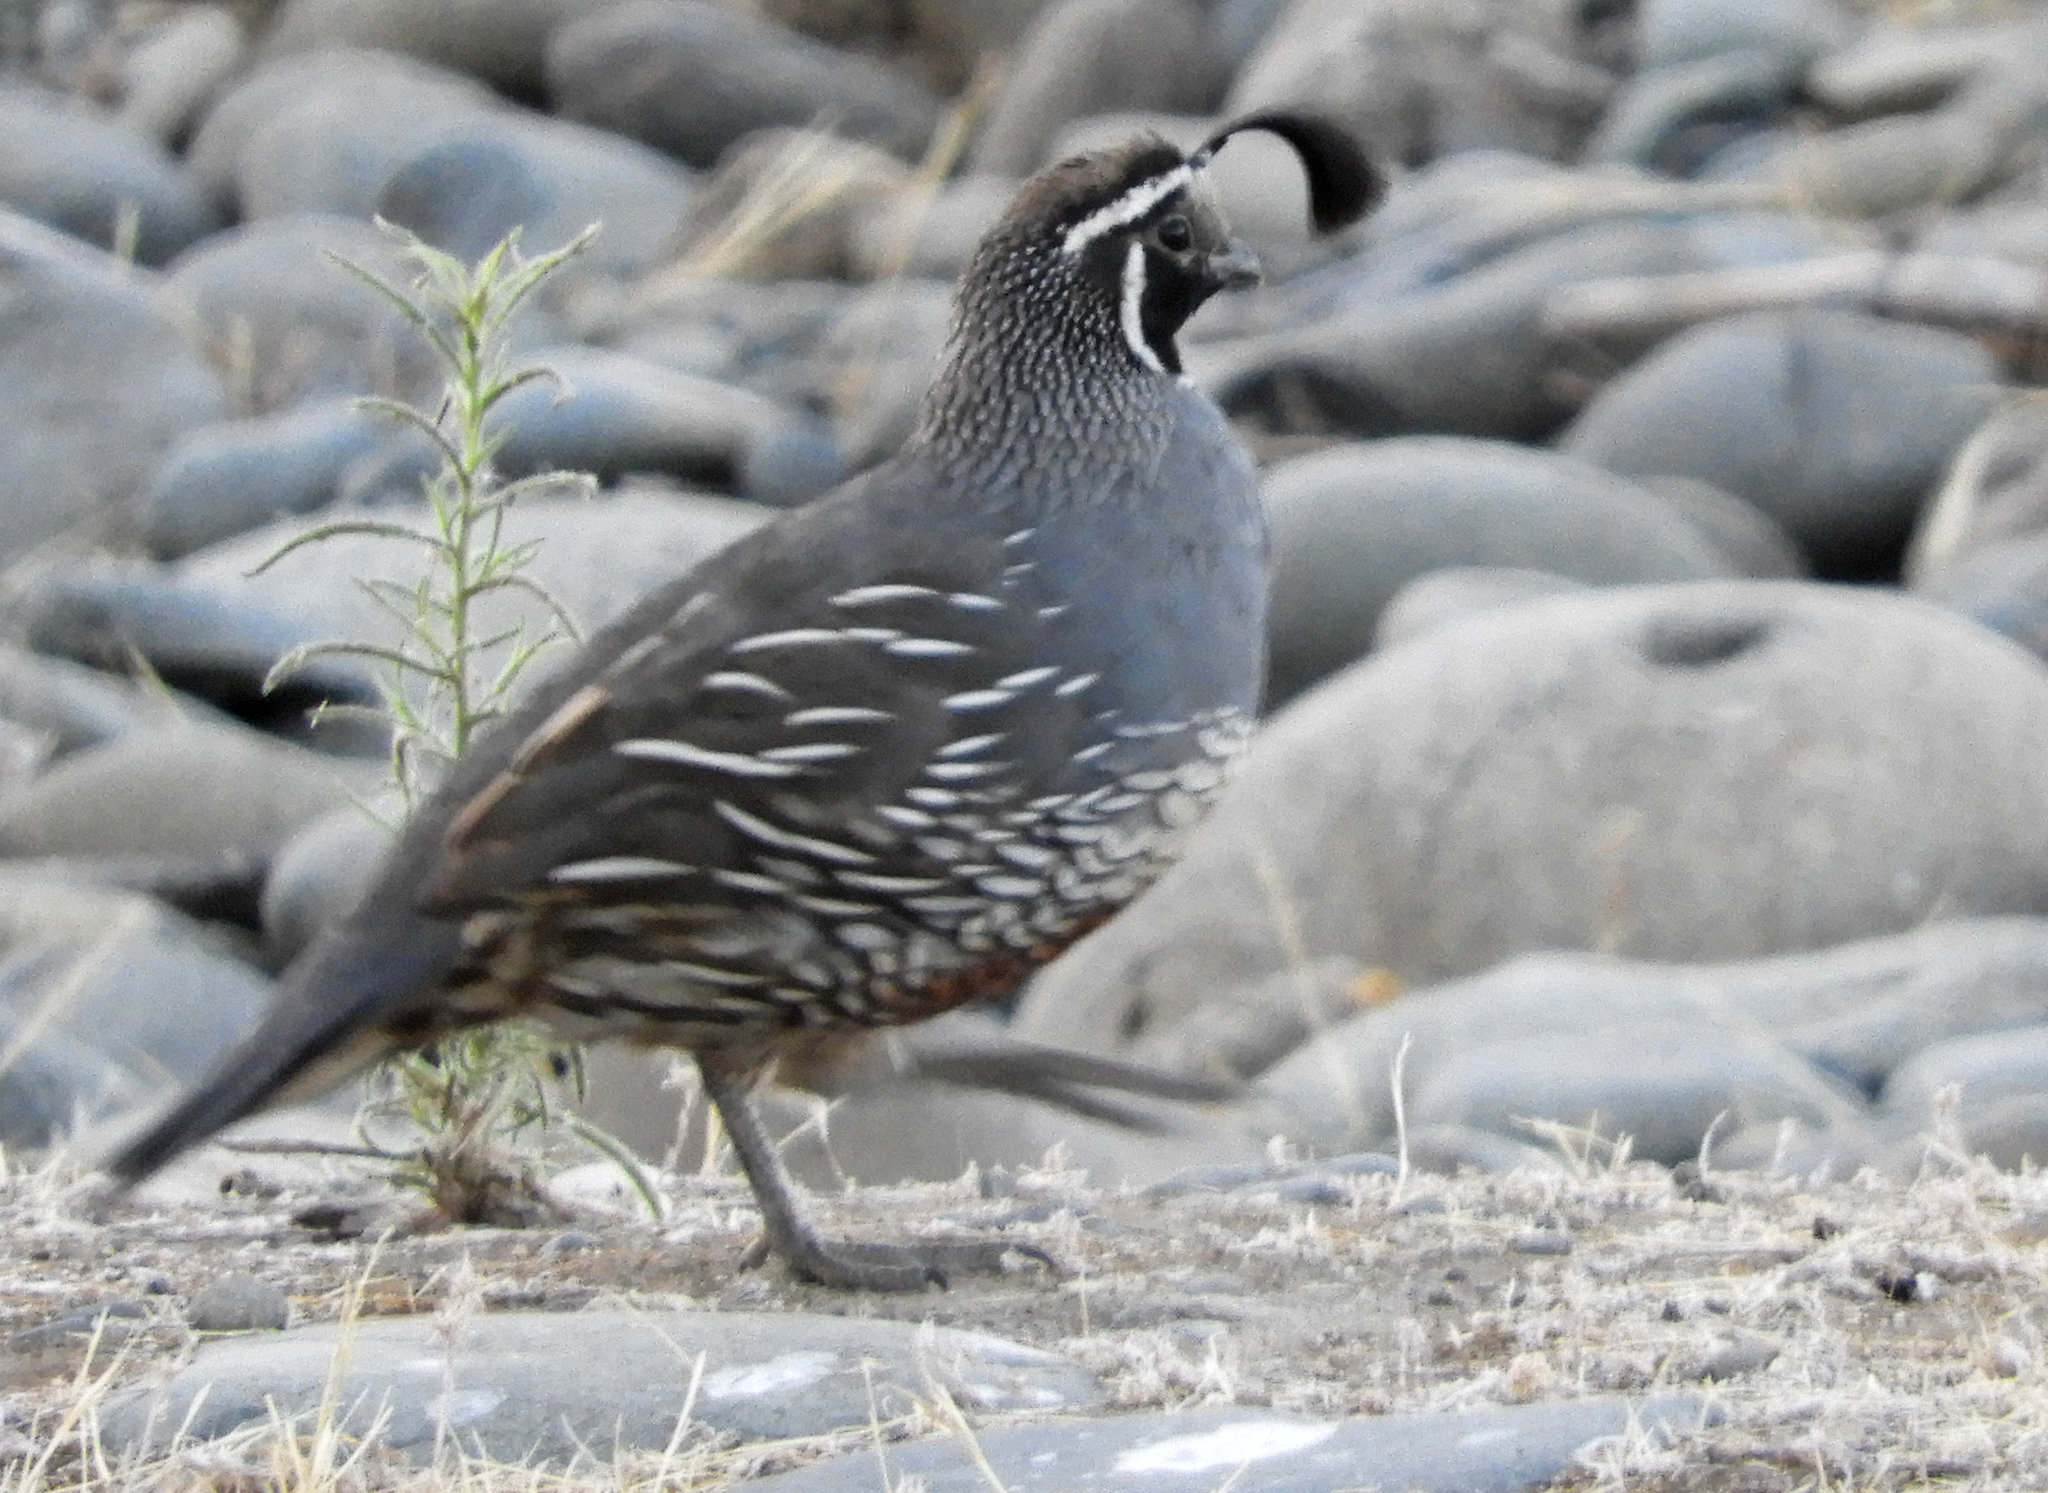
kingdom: Animalia
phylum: Chordata
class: Aves
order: Galliformes
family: Odontophoridae
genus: Callipepla
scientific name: Callipepla californica
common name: California quail
